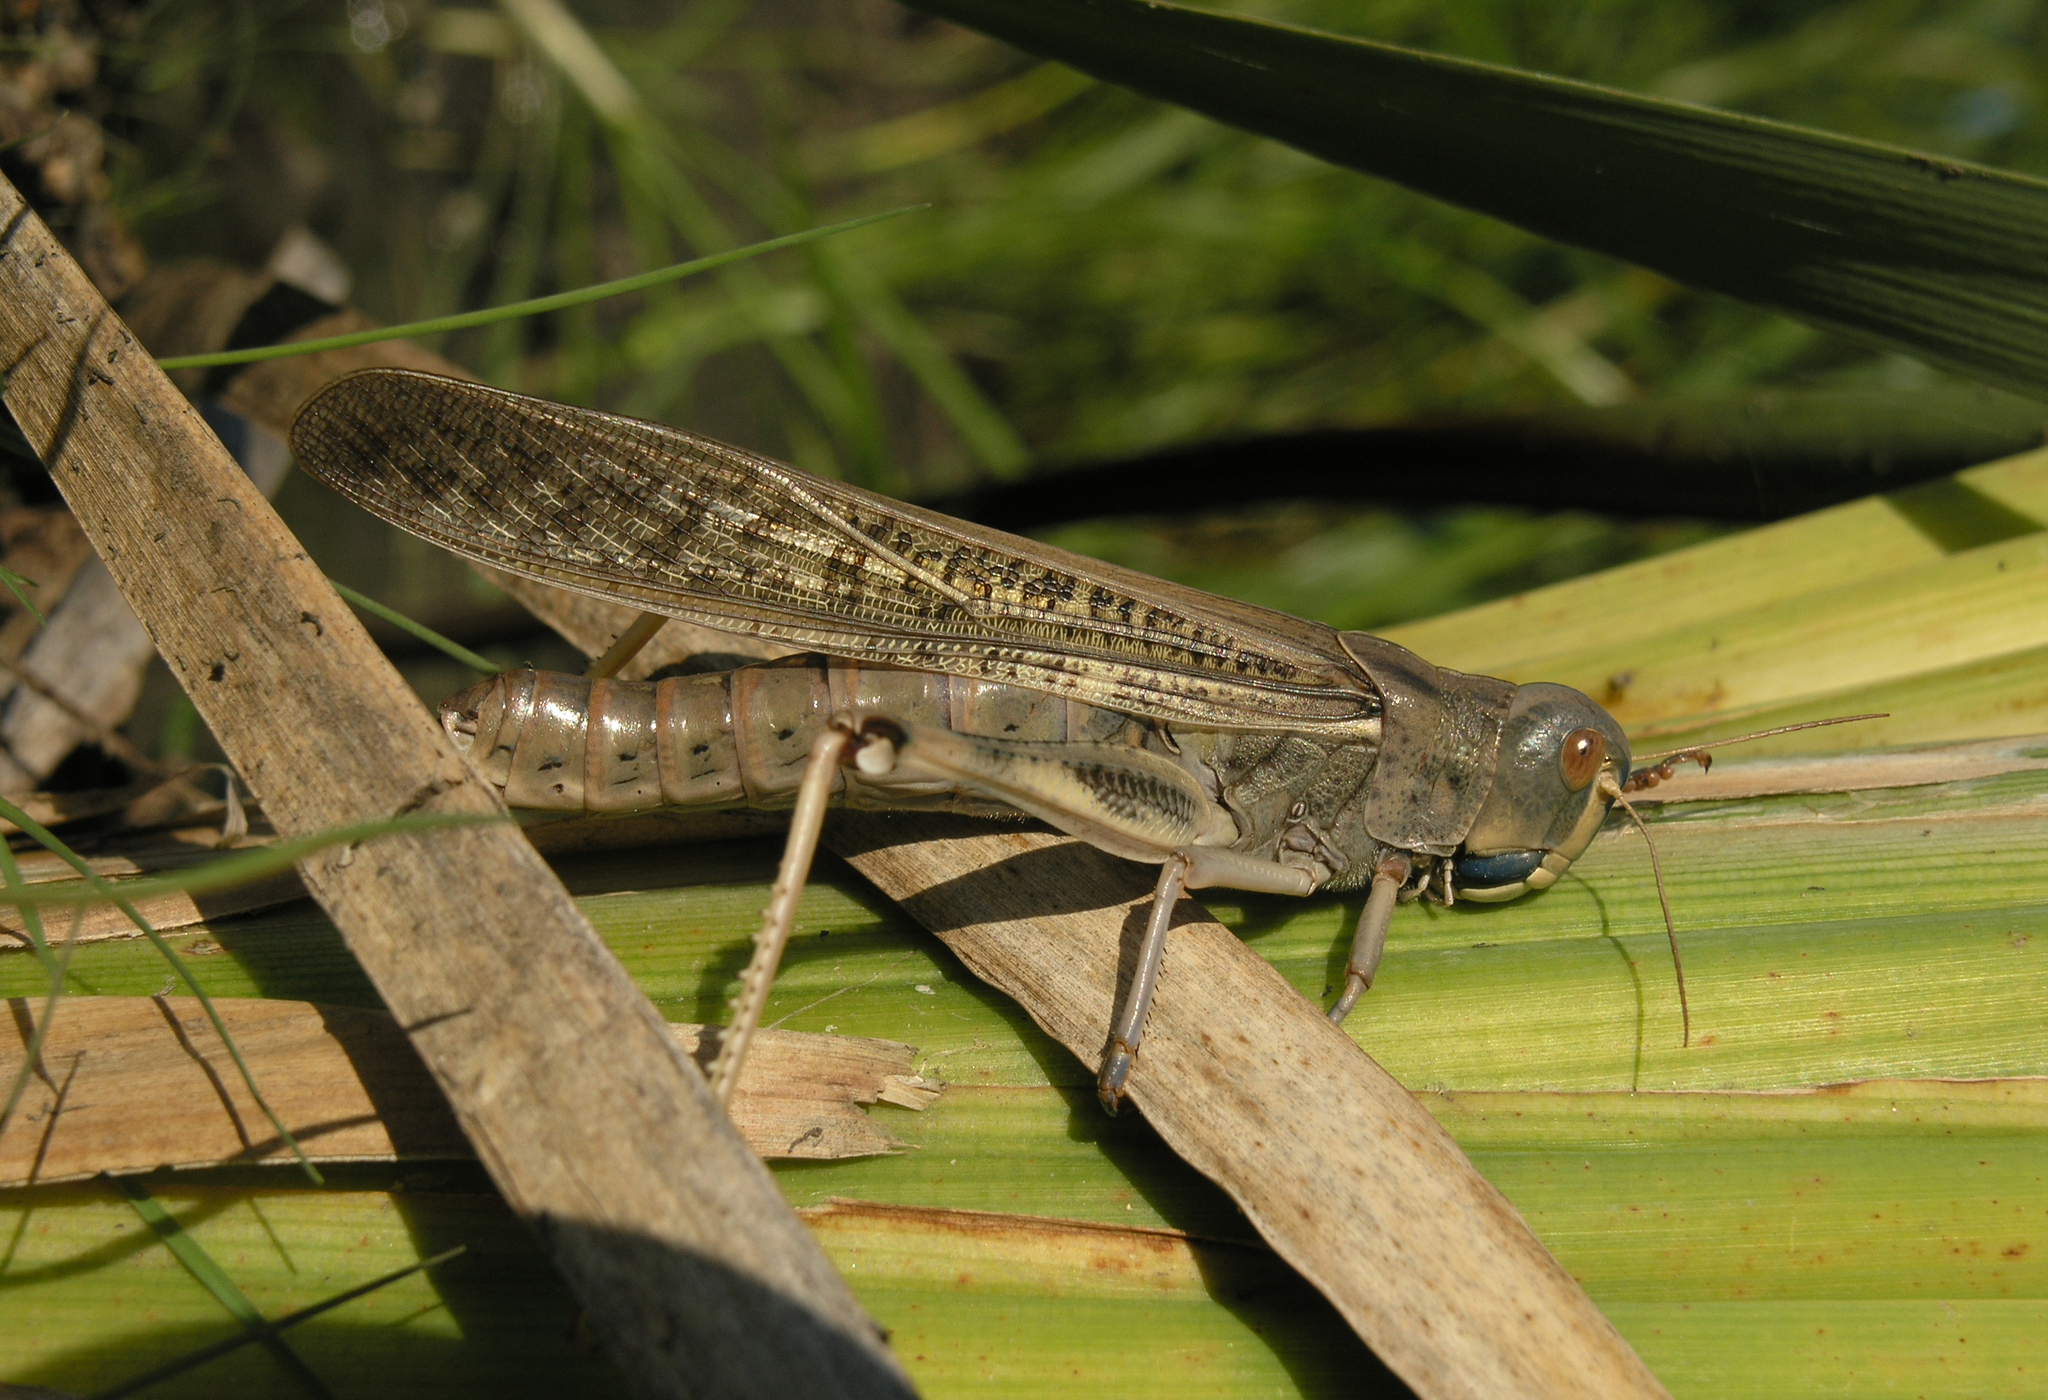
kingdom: Animalia
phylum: Arthropoda
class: Insecta
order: Orthoptera
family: Acrididae
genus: Locusta
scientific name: Locusta migratoria
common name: Migratory locust
